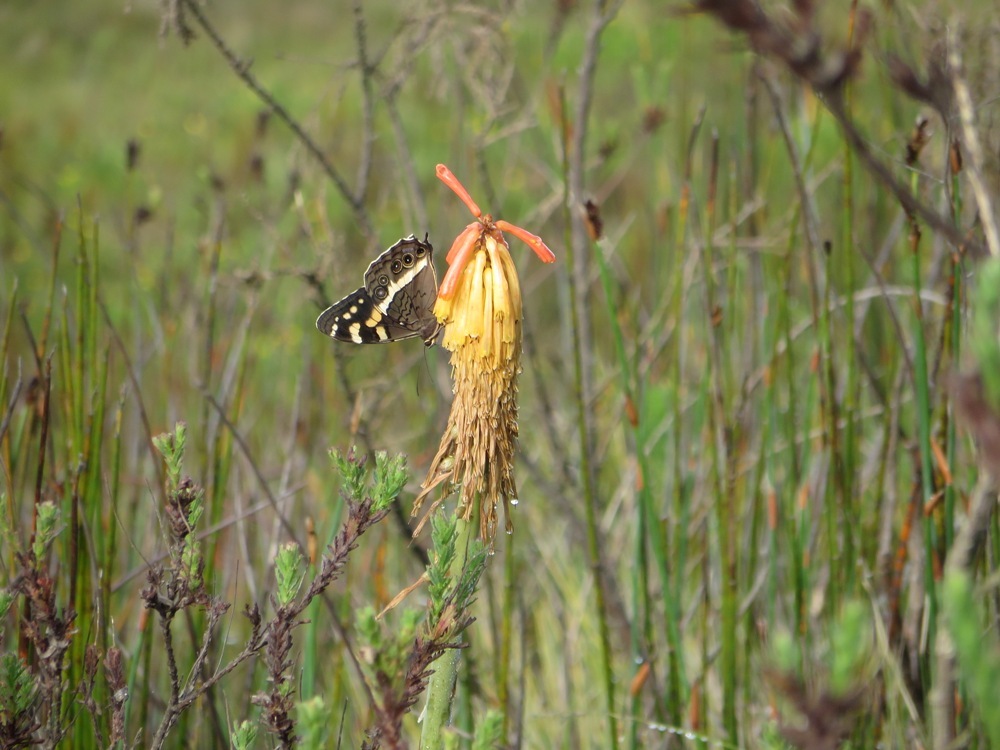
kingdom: Animalia
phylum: Arthropoda
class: Insecta
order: Lepidoptera
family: Nymphalidae
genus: Meneris
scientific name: Meneris Aeropetes tulbaghia
